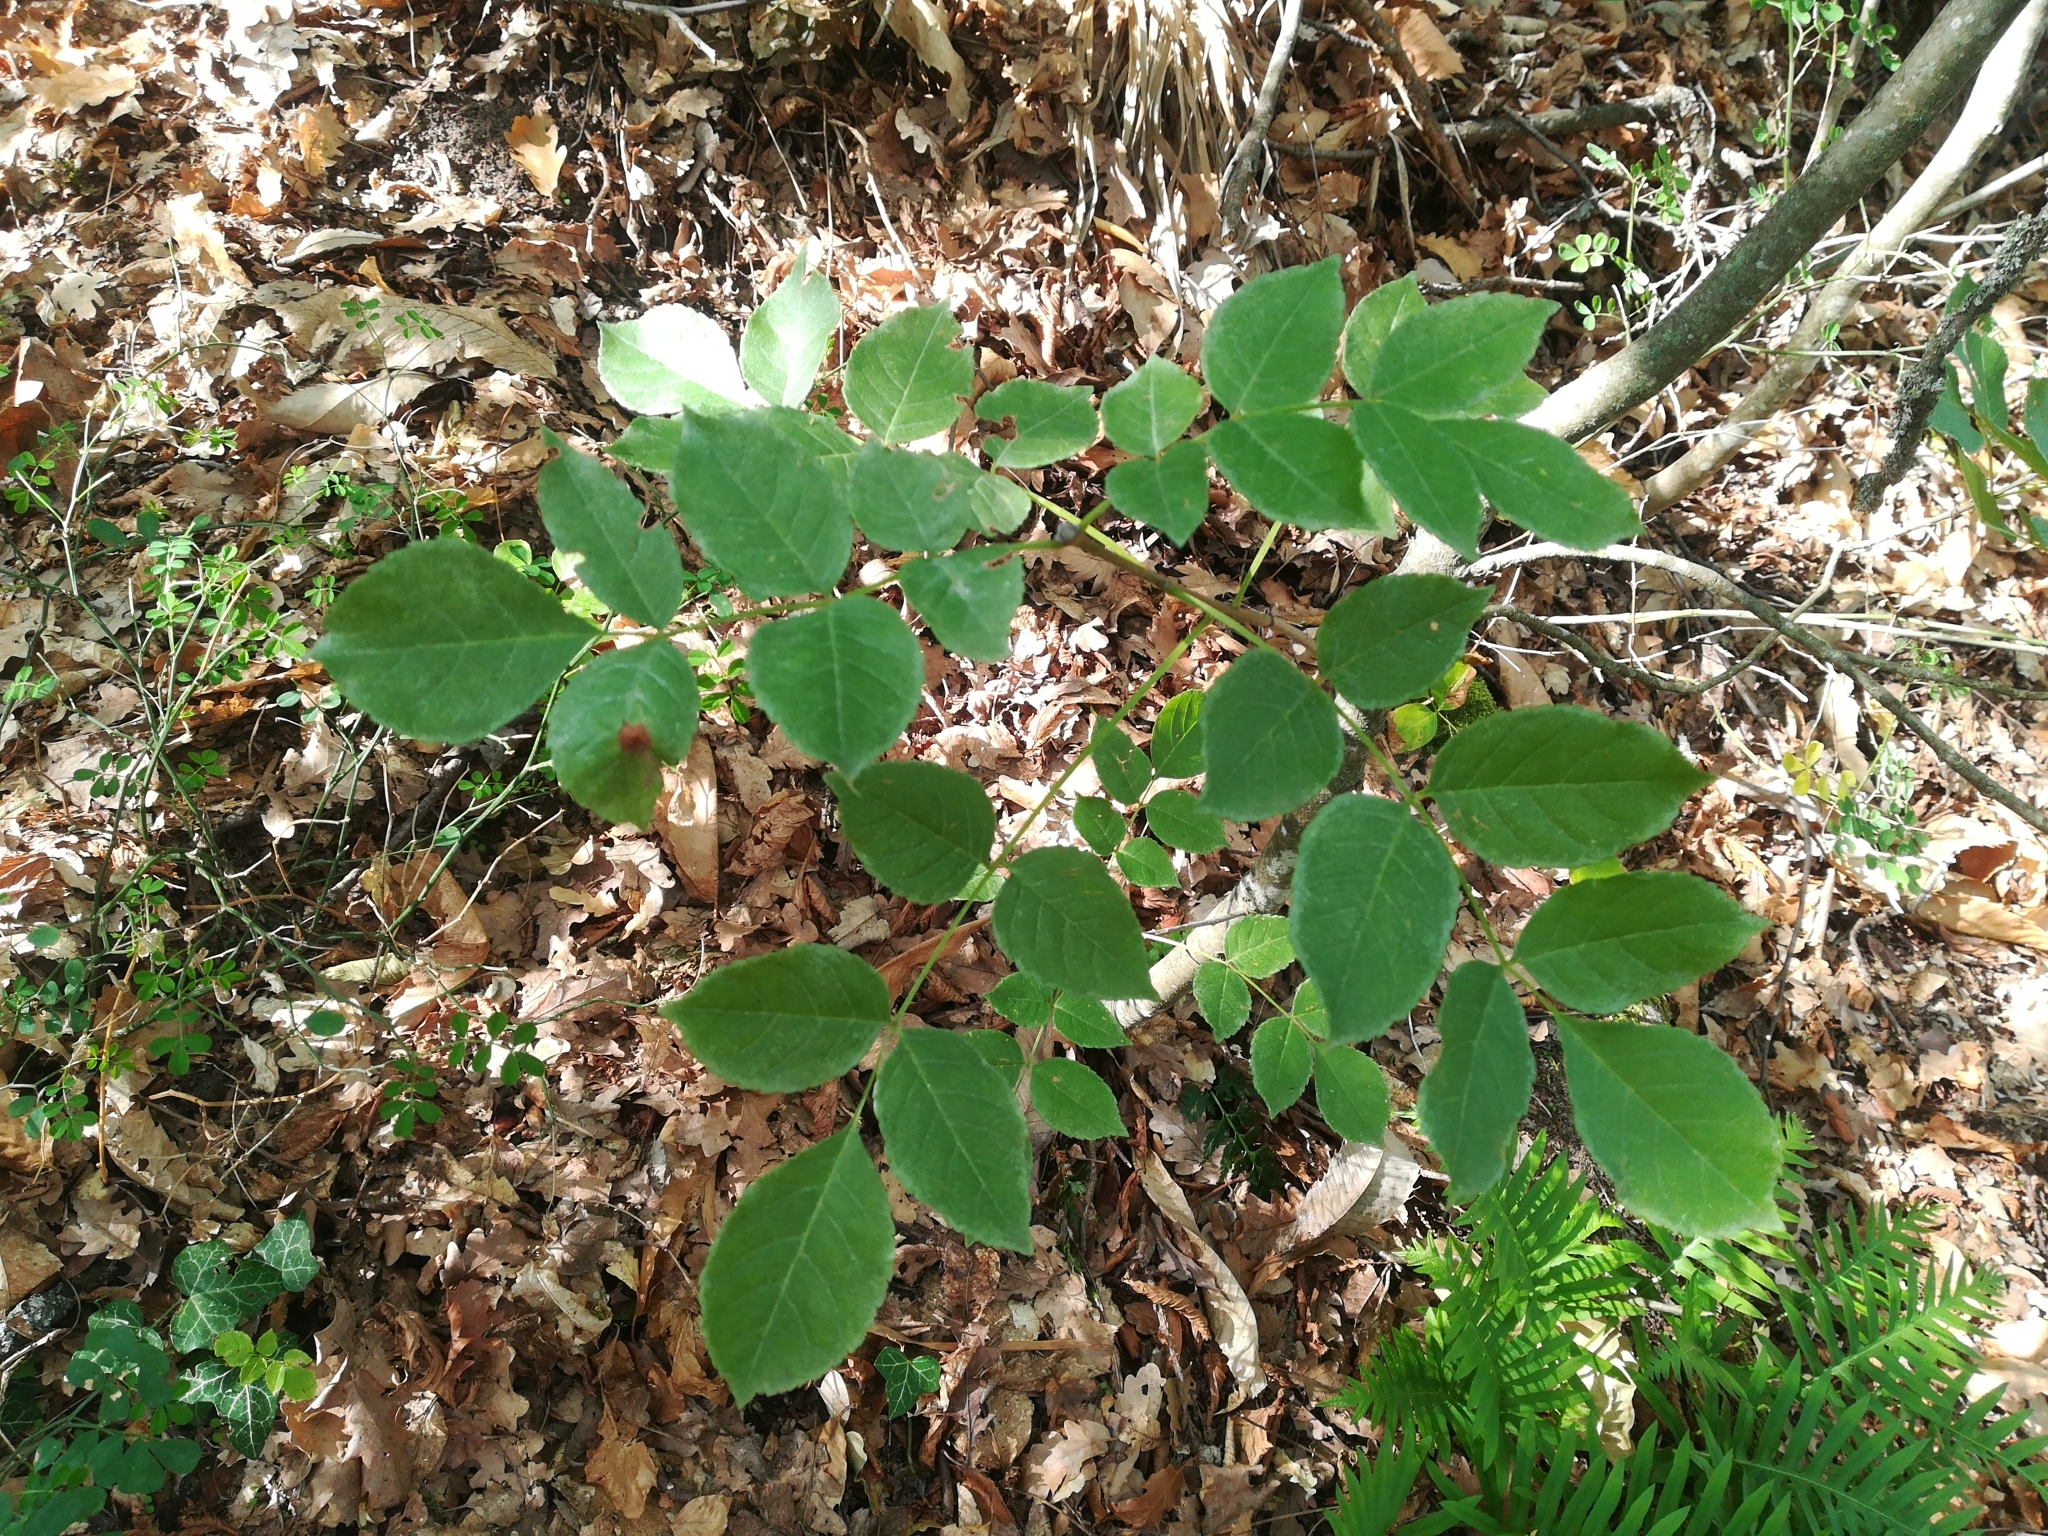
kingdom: Plantae
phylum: Tracheophyta
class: Magnoliopsida
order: Lamiales
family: Oleaceae
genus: Fraxinus
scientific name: Fraxinus excelsior
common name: European ash
